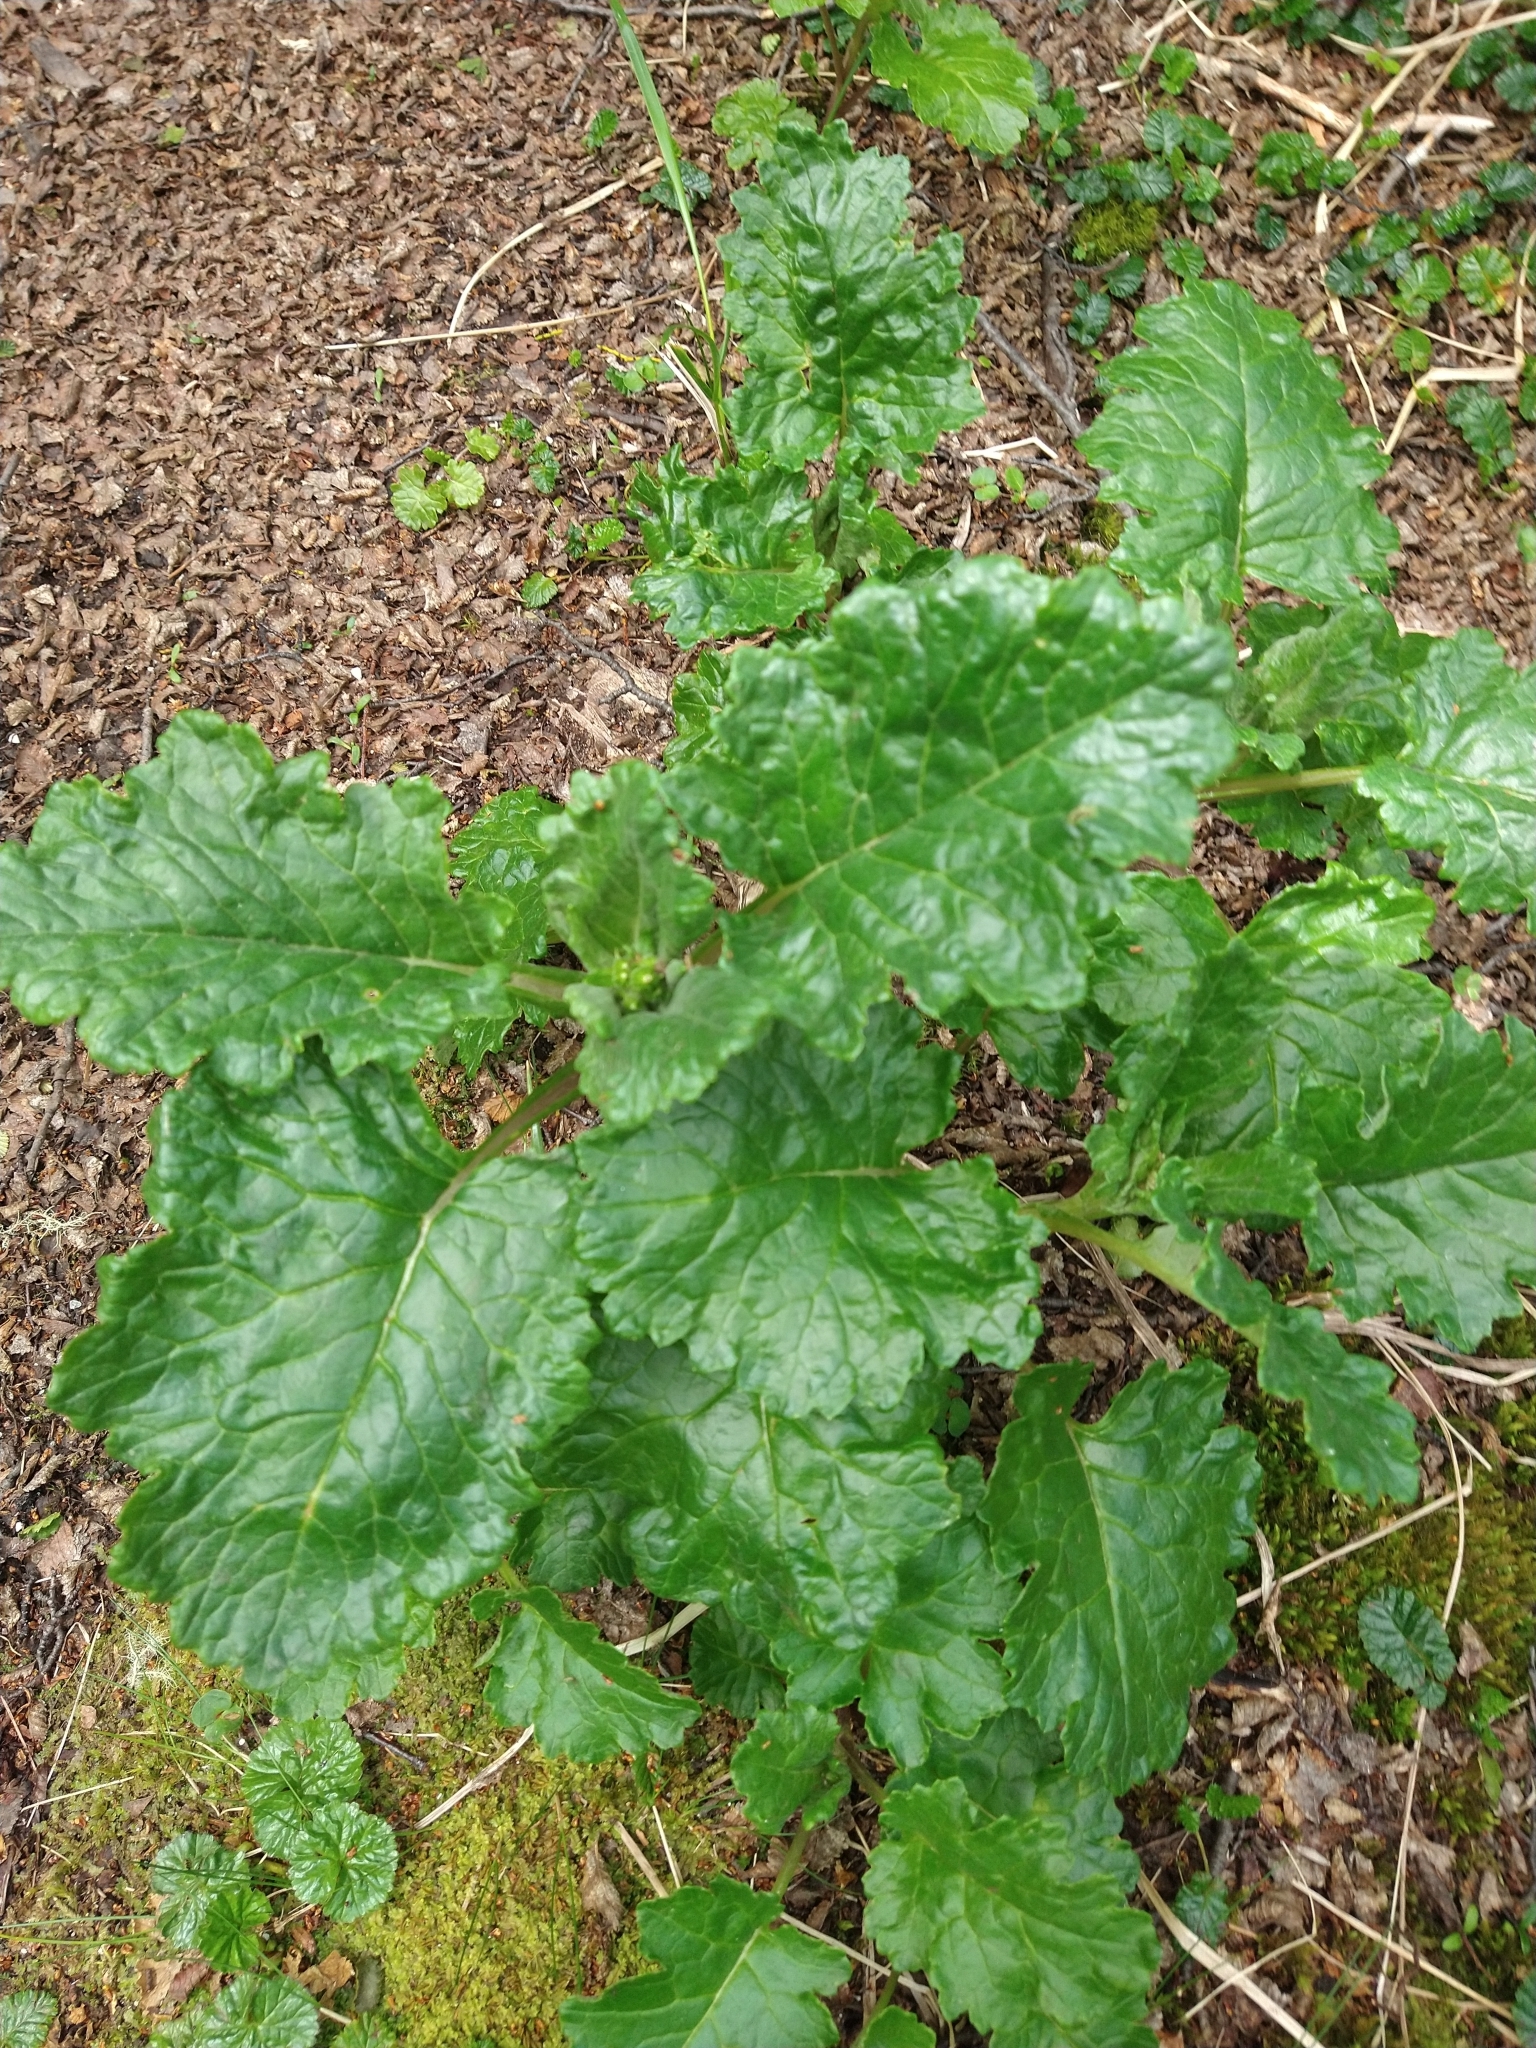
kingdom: Plantae
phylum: Tracheophyta
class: Magnoliopsida
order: Asterales
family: Asteraceae
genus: Iocenes
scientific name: Iocenes virens
